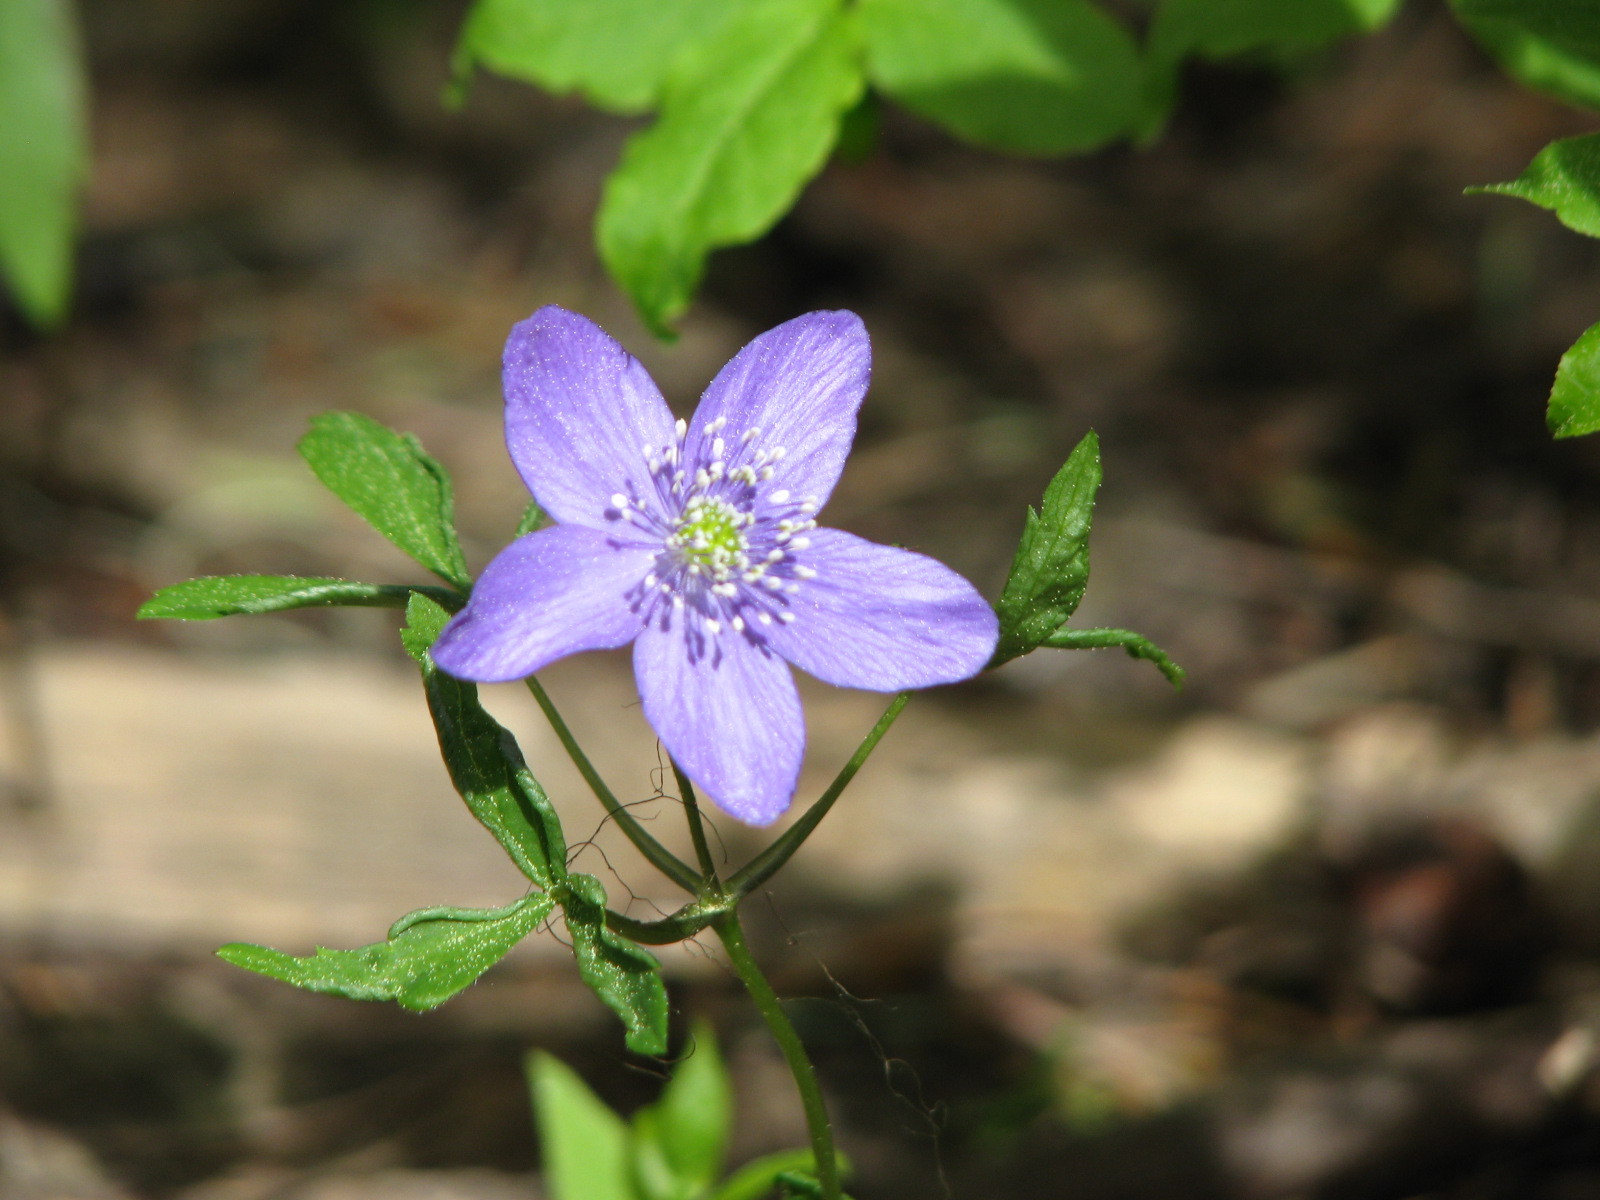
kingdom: Plantae
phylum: Tracheophyta
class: Magnoliopsida
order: Ranunculales
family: Ranunculaceae
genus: Anemone
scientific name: Anemone oregana
